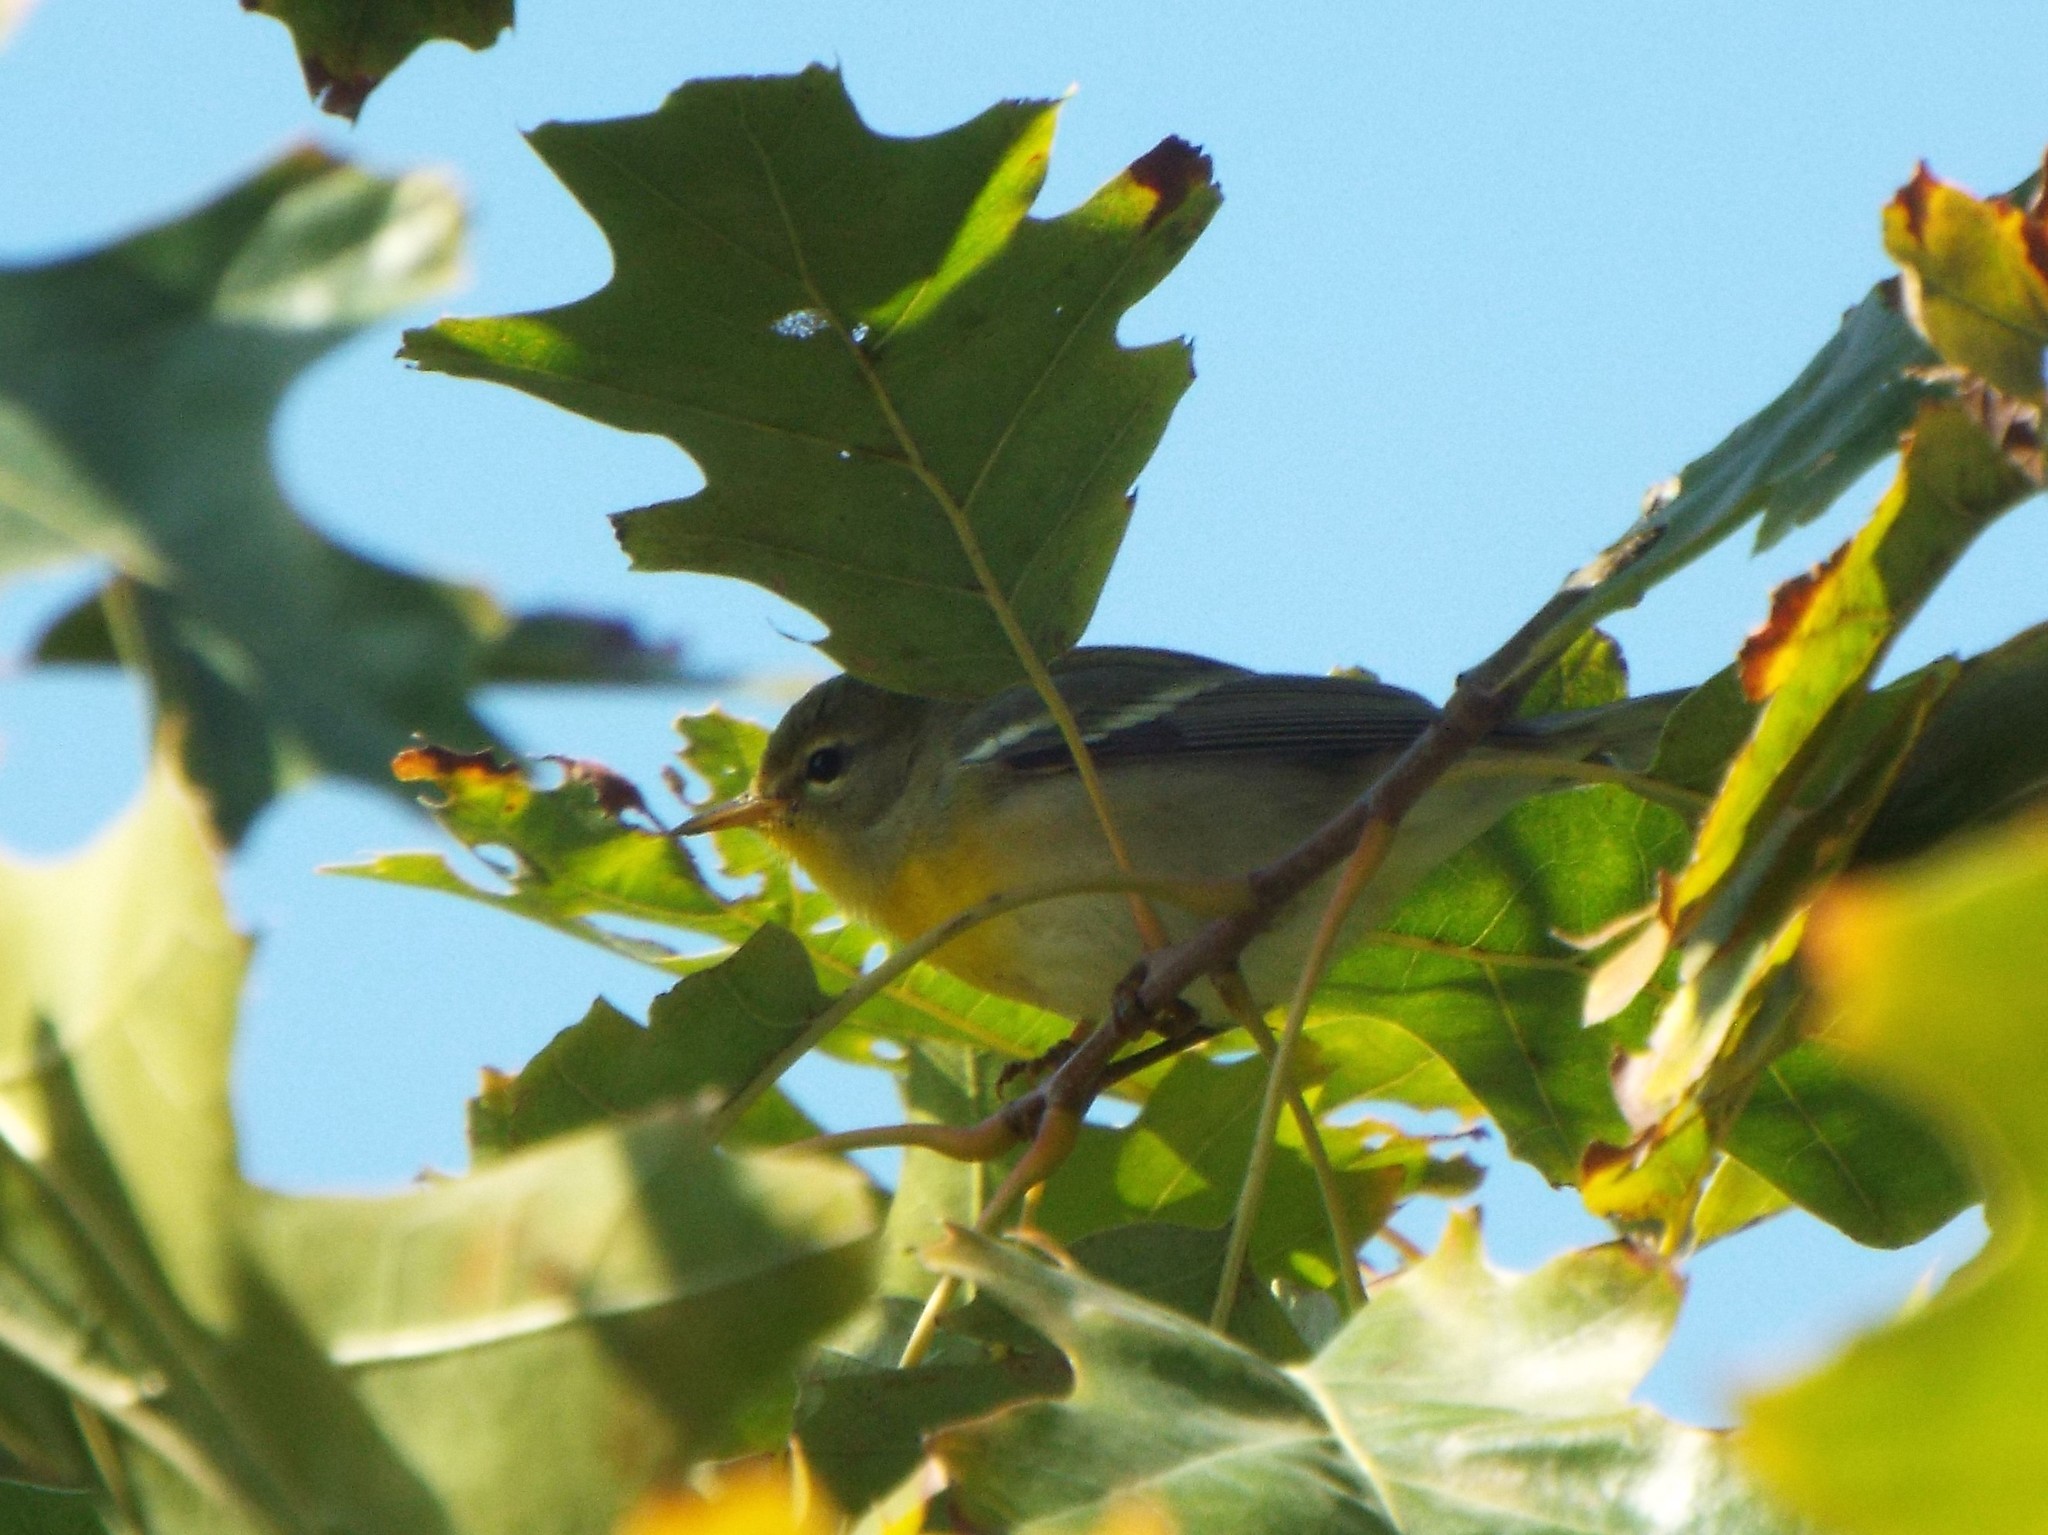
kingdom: Animalia
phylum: Chordata
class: Aves
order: Passeriformes
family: Parulidae
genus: Setophaga
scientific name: Setophaga americana
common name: Northern parula
